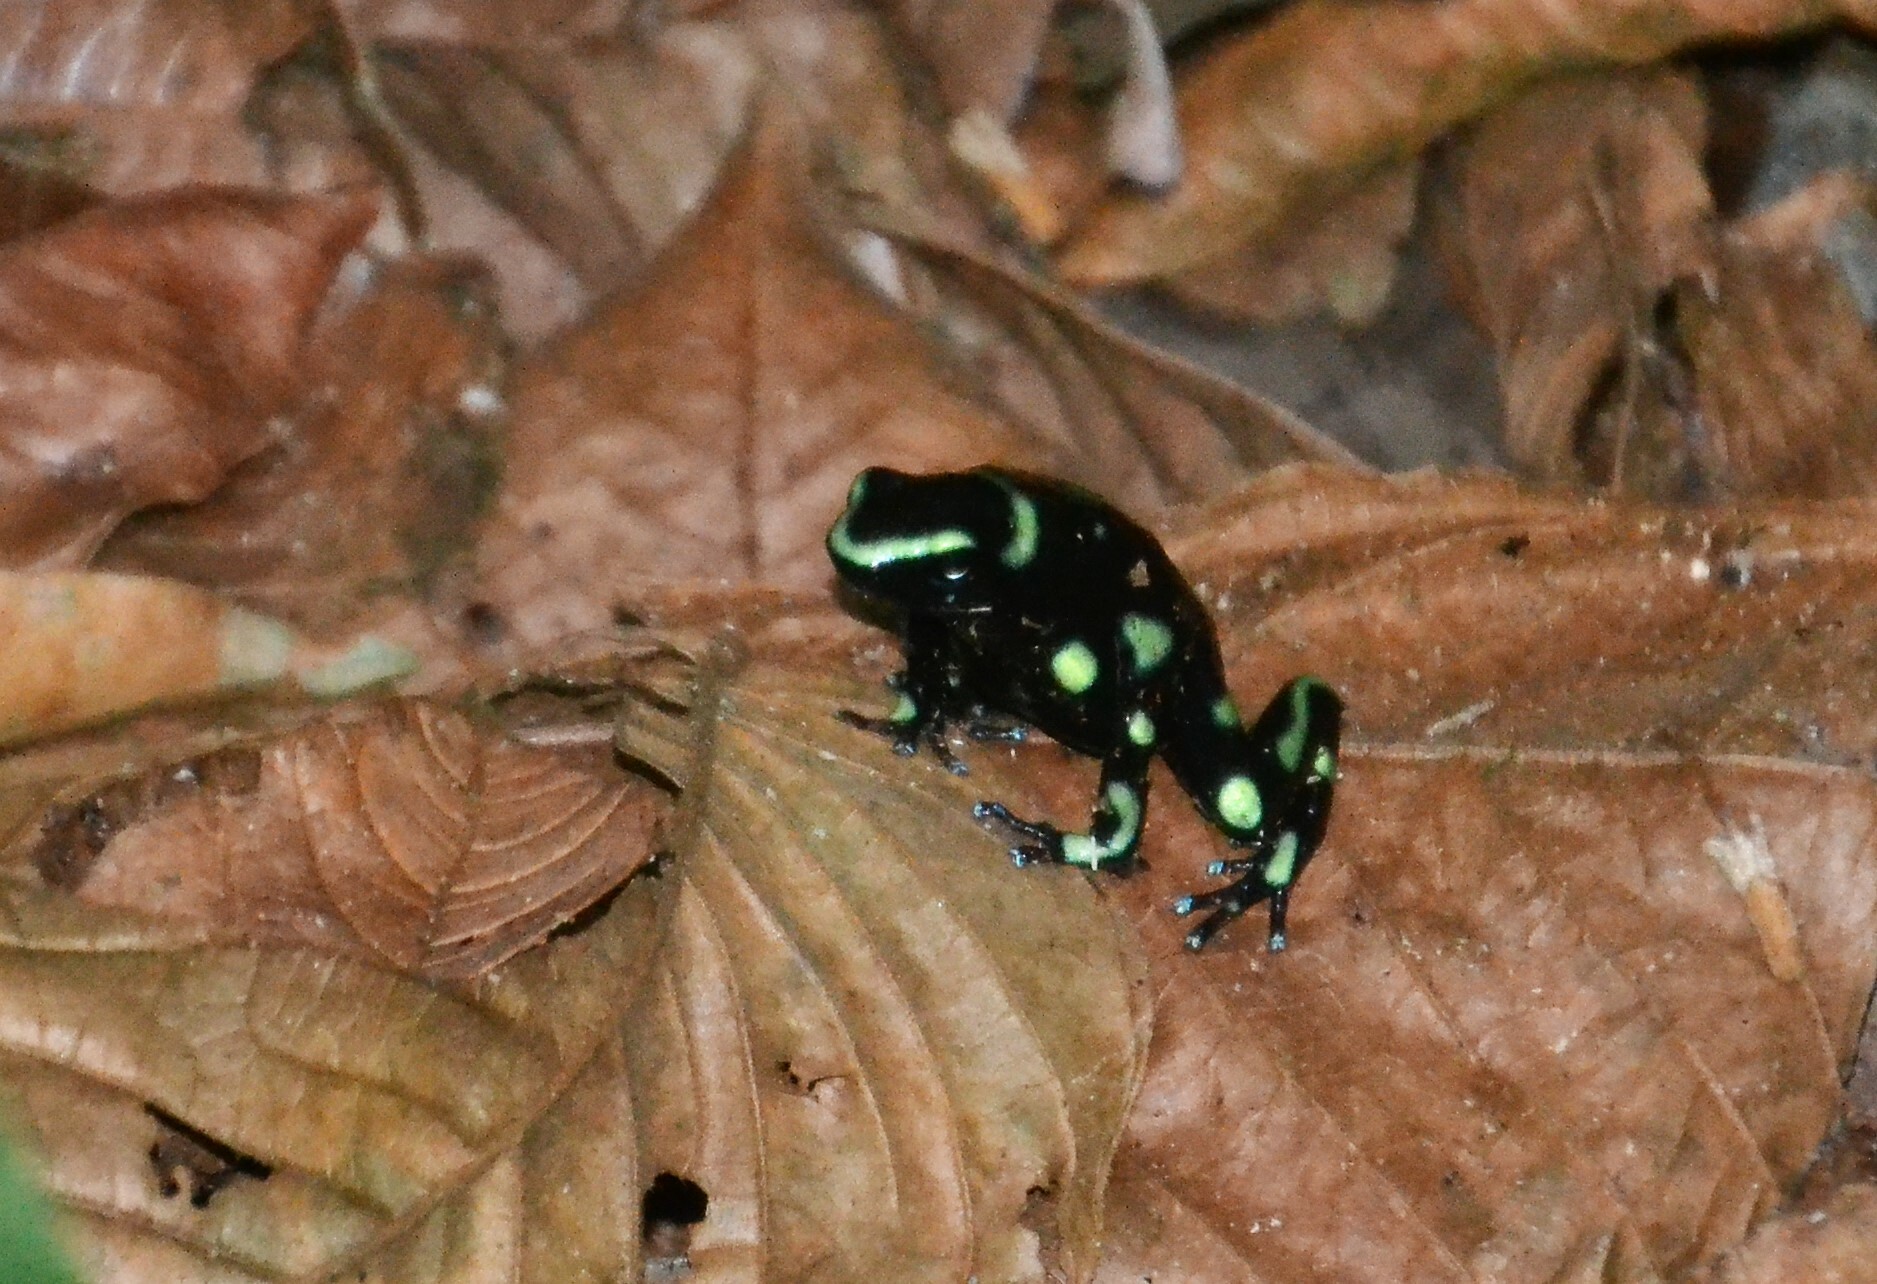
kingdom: Animalia
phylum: Chordata
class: Amphibia
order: Anura
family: Dendrobatidae
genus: Dendrobates
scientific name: Dendrobates auratus
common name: Green and black poison dart frog
